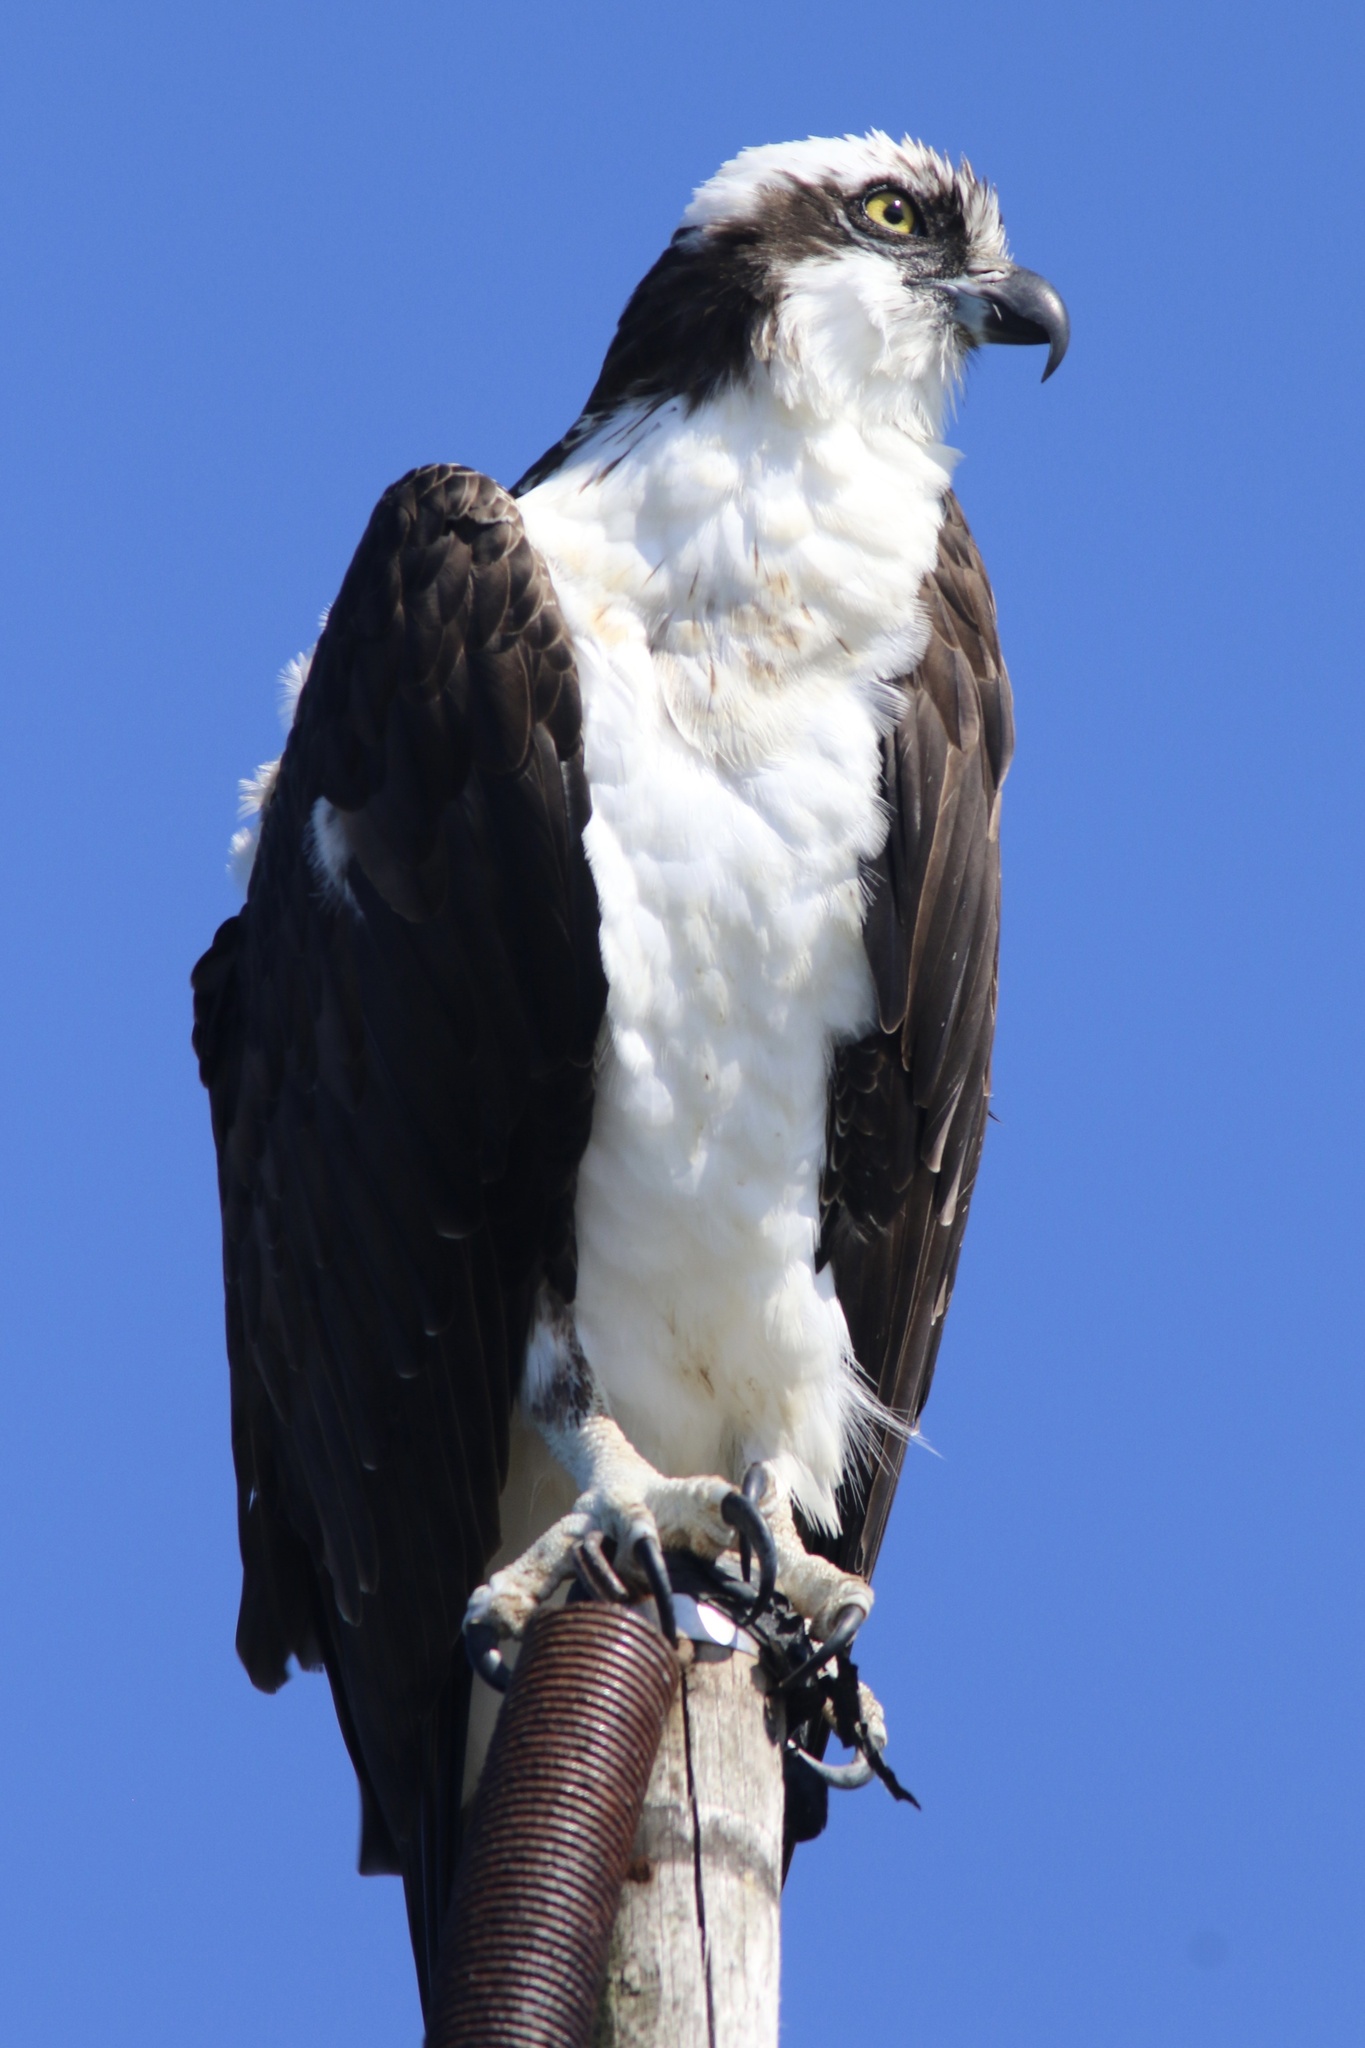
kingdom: Animalia
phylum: Chordata
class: Aves
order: Accipitriformes
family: Pandionidae
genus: Pandion
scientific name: Pandion haliaetus
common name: Osprey
